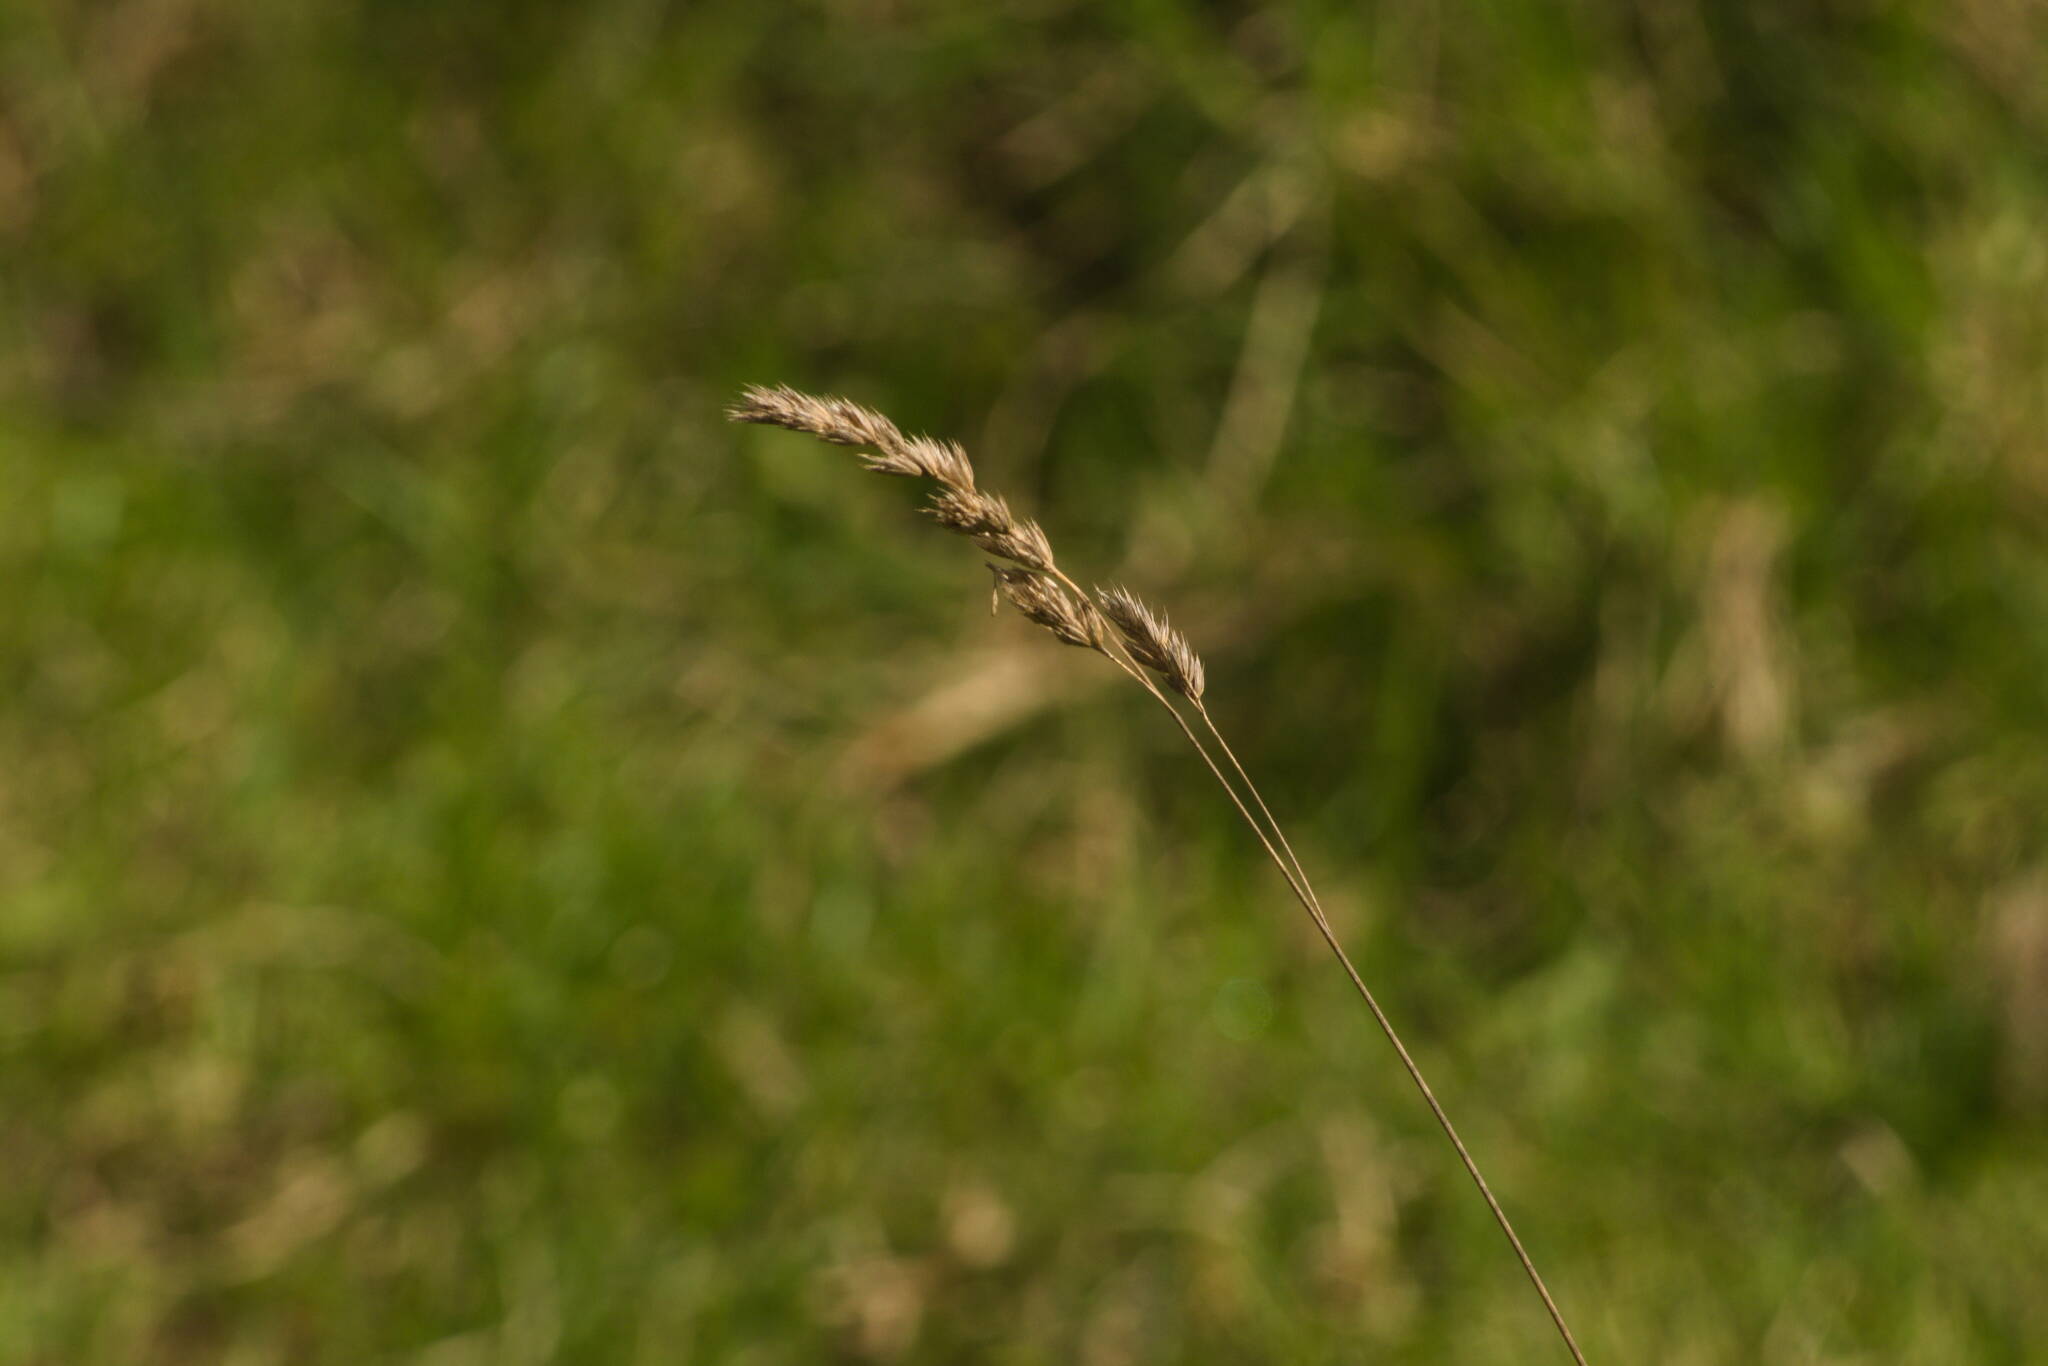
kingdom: Plantae
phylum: Tracheophyta
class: Liliopsida
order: Poales
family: Poaceae
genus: Dactylis
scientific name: Dactylis glomerata
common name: Orchardgrass
